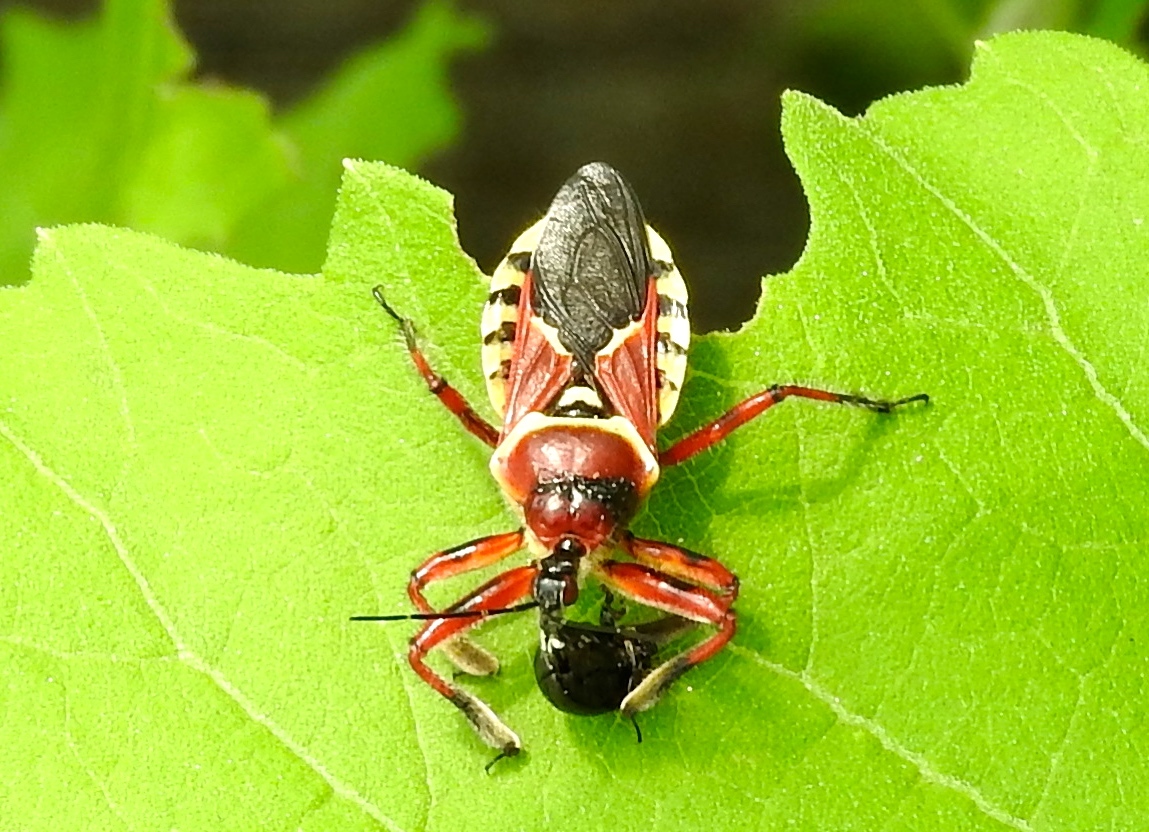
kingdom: Animalia
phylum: Arthropoda
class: Insecta
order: Hemiptera
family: Reduviidae
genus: Apiomerus
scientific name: Apiomerus flaviventris
